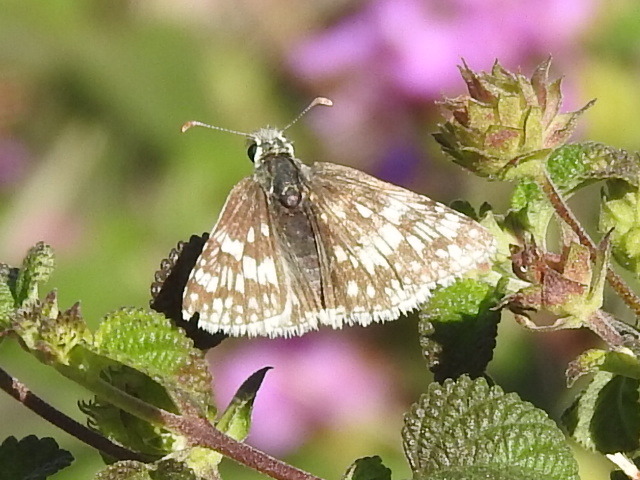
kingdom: Animalia
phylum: Arthropoda
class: Insecta
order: Lepidoptera
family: Hesperiidae
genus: Burnsius
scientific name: Burnsius
